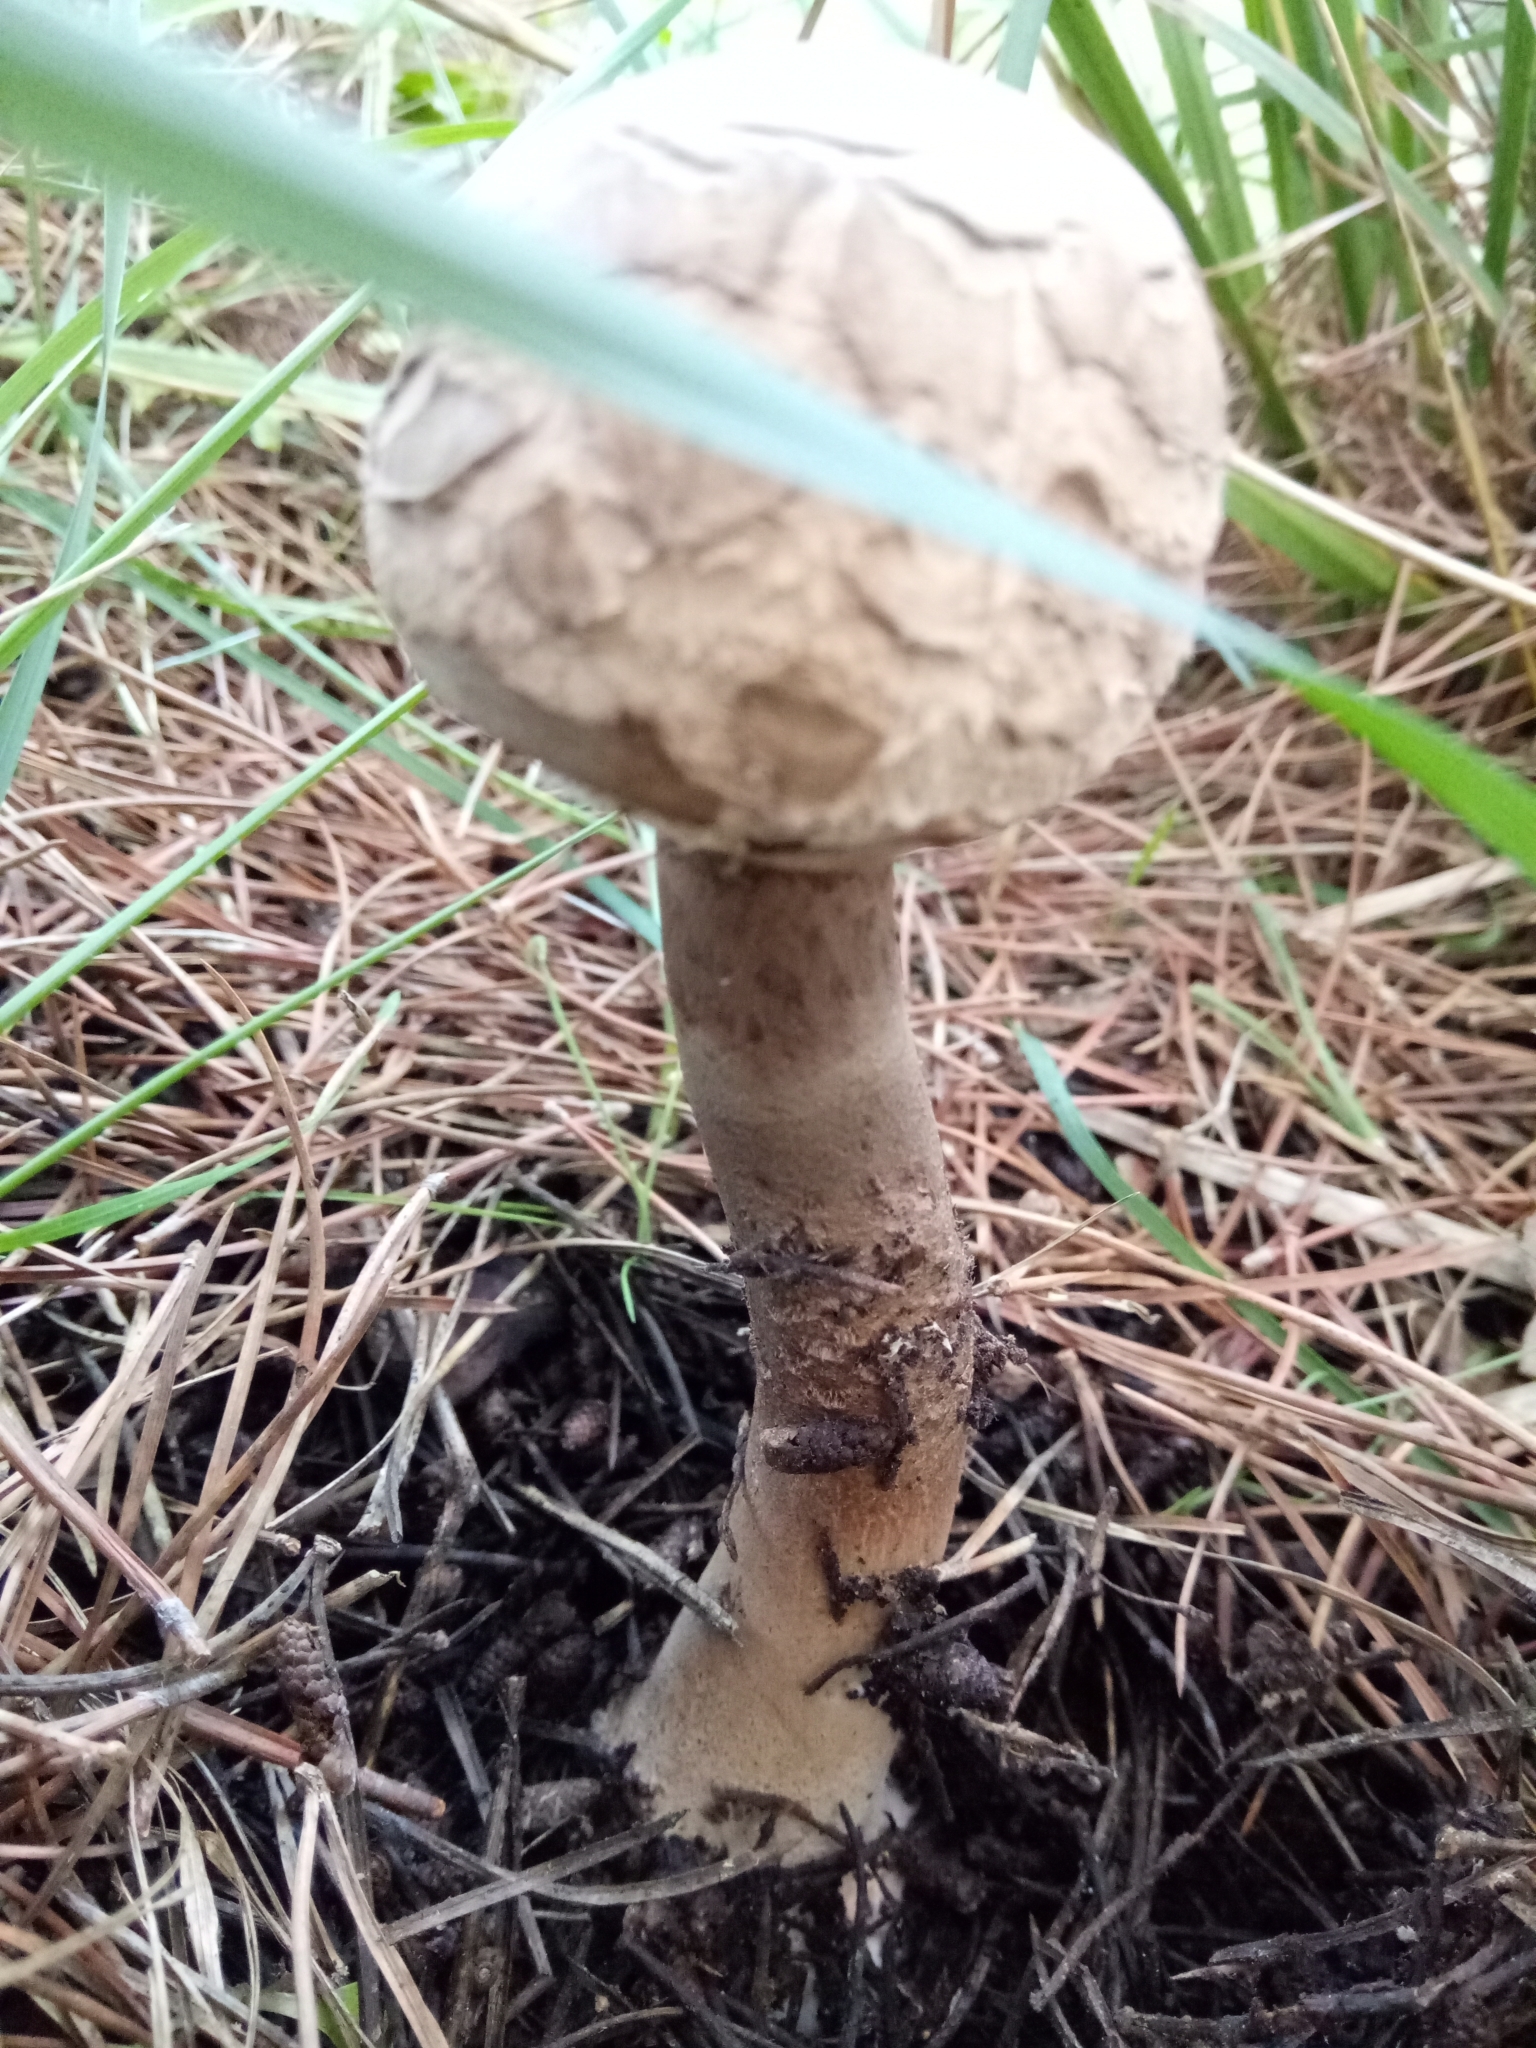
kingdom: Fungi
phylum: Basidiomycota
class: Agaricomycetes
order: Agaricales
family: Agaricaceae
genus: Macrolepiota
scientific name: Macrolepiota procera
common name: Parasol
